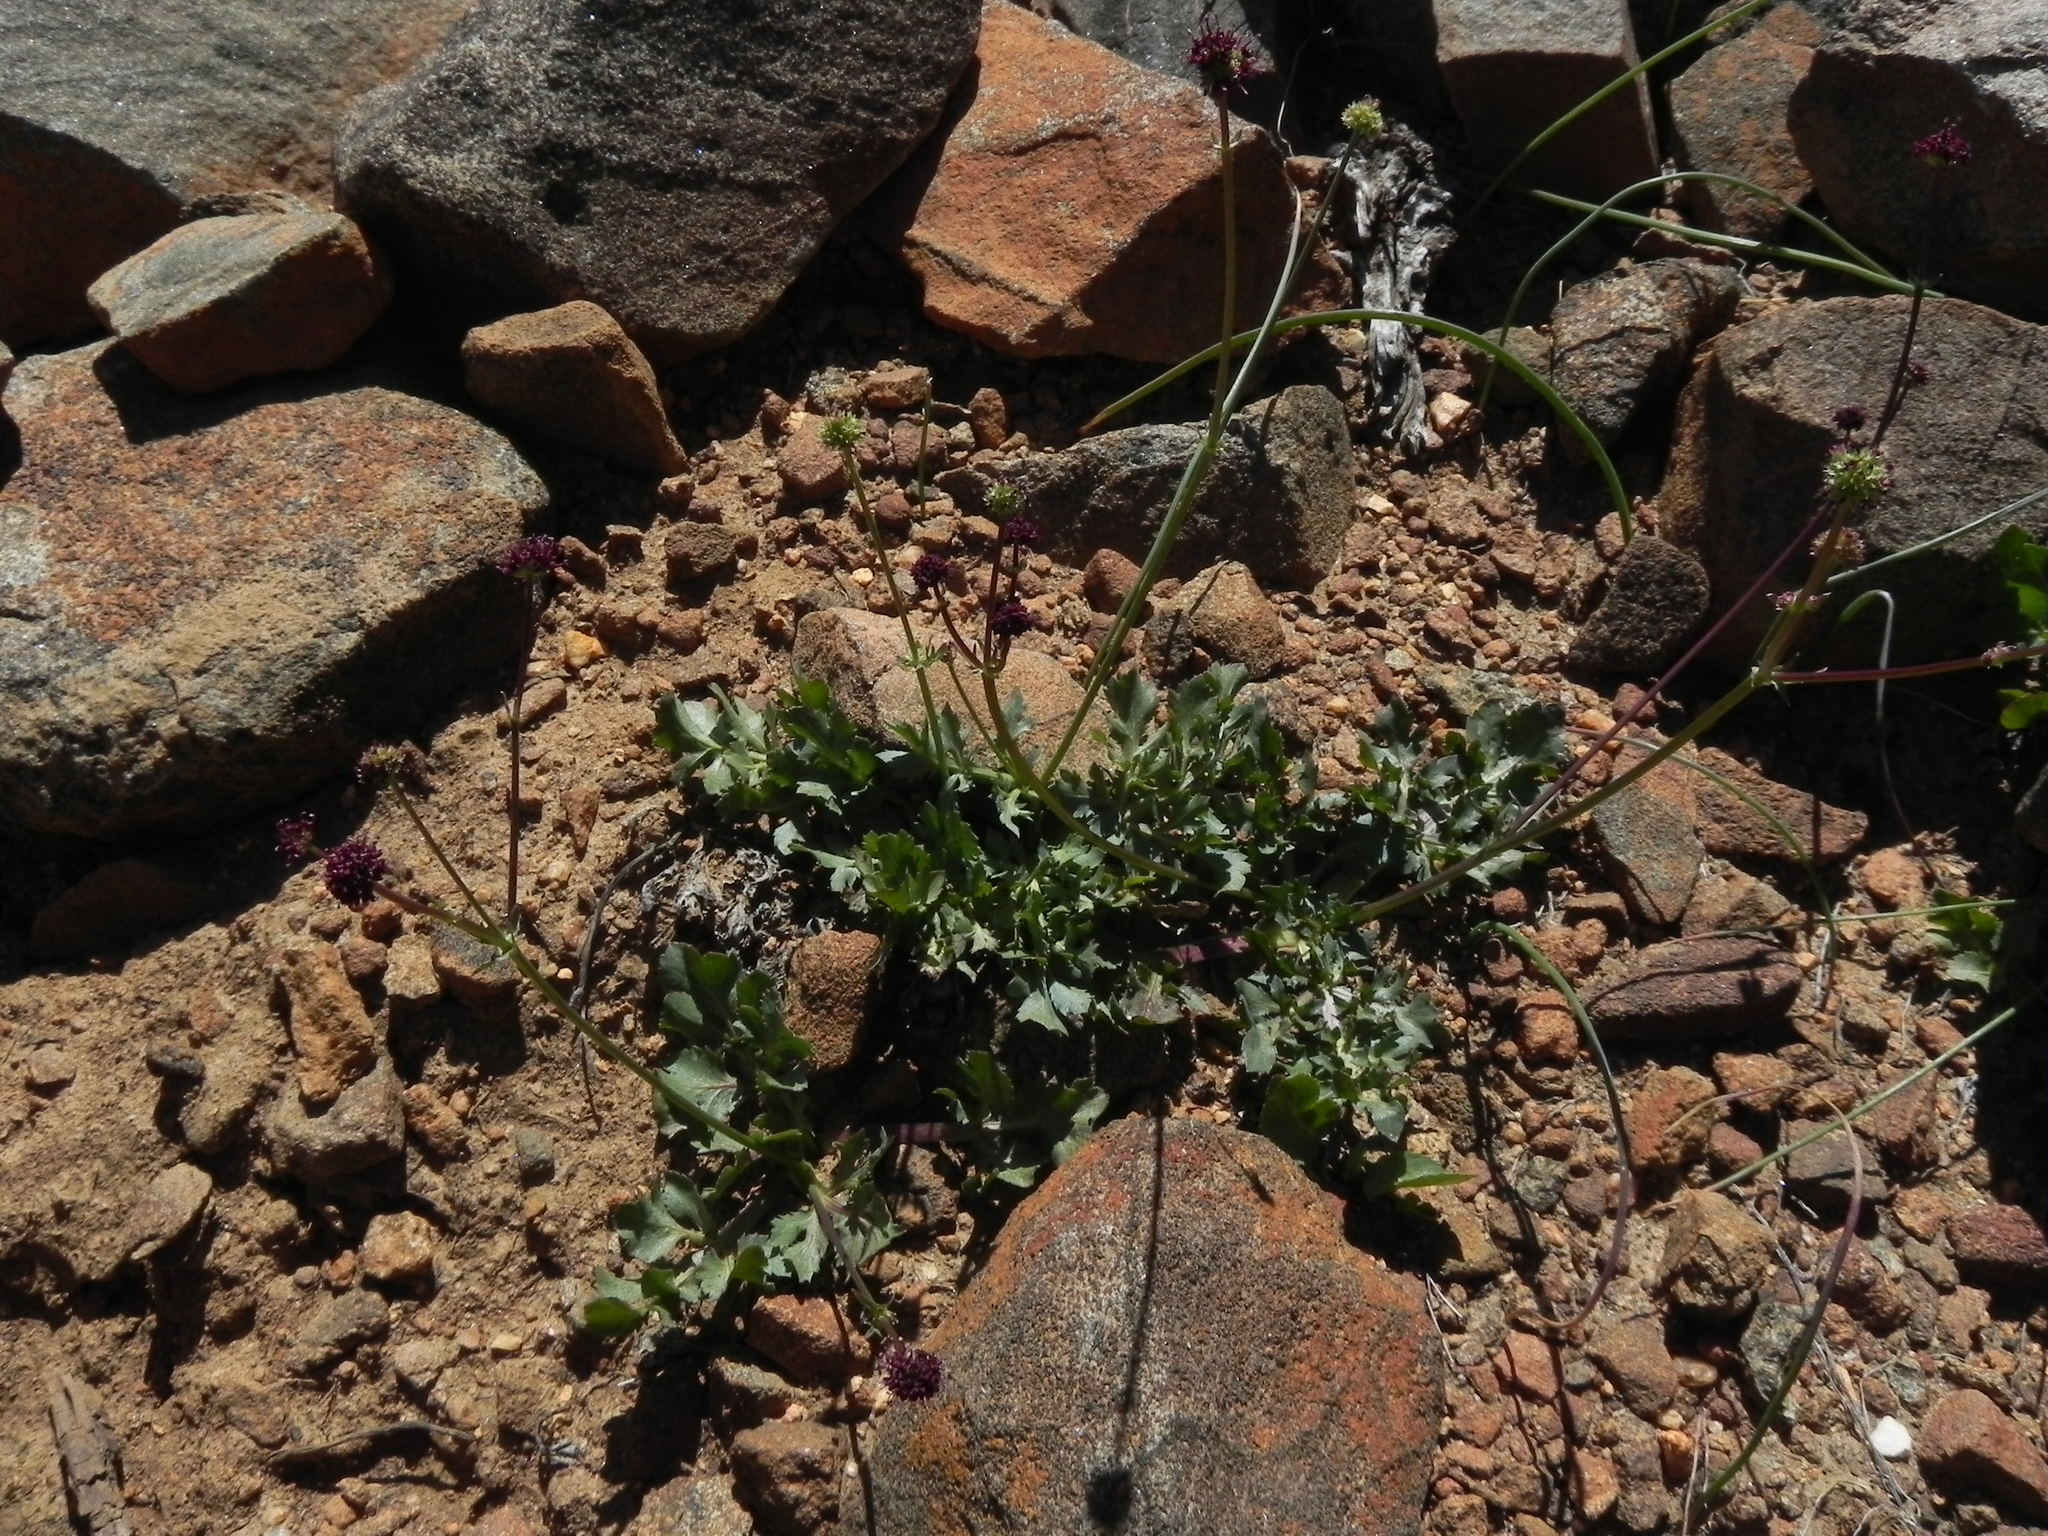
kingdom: Plantae
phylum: Tracheophyta
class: Magnoliopsida
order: Apiales
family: Apiaceae
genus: Sanicula
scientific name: Sanicula bipinnatifida
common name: Shoe-buttons
